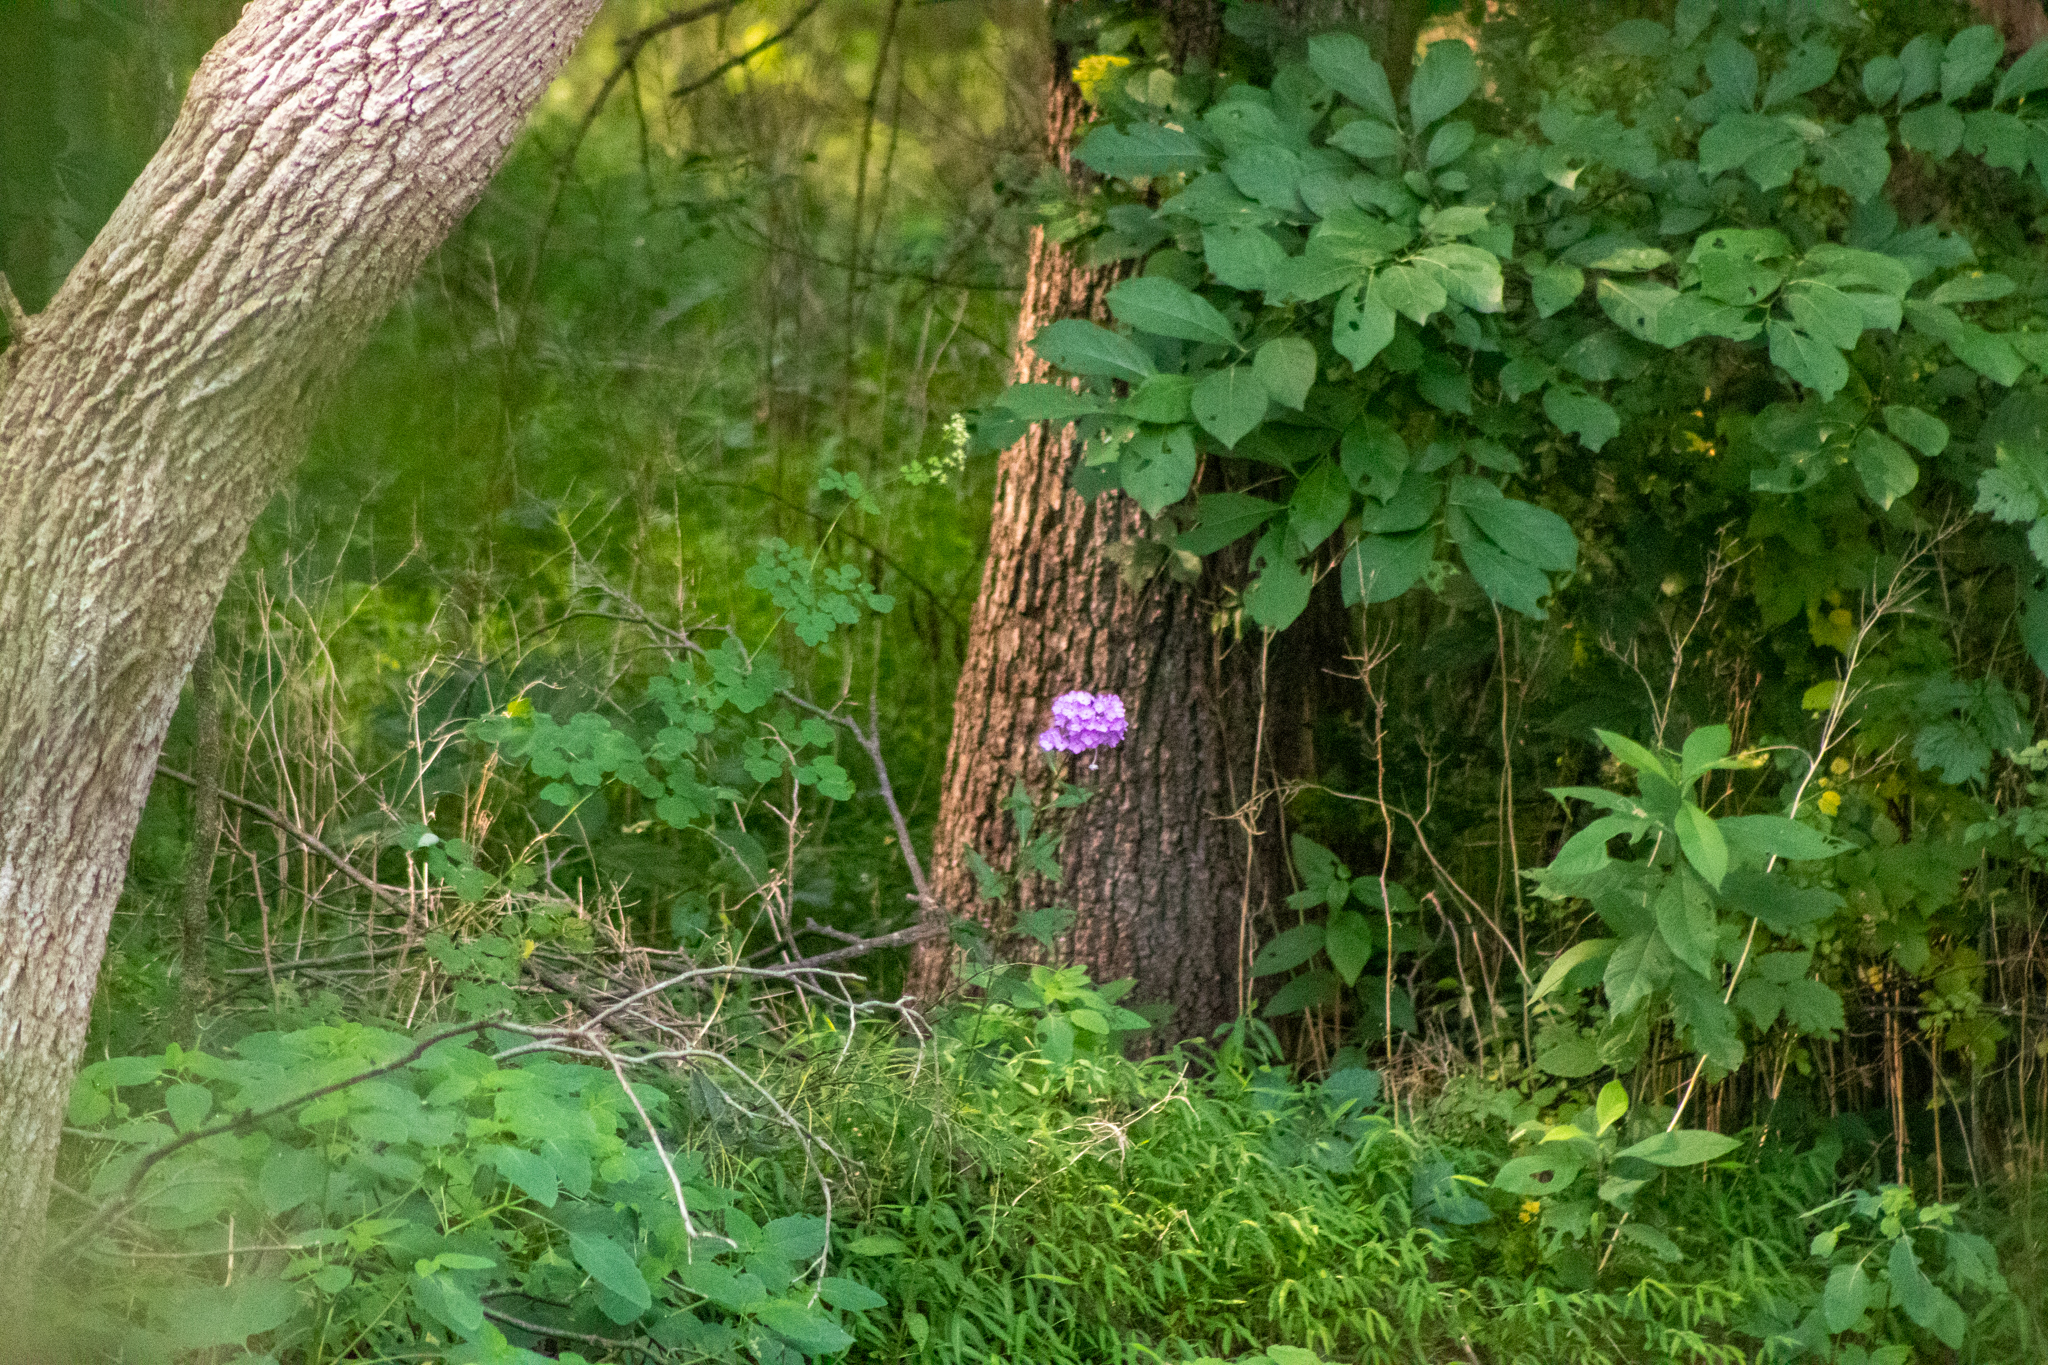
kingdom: Plantae
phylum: Tracheophyta
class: Magnoliopsida
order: Ericales
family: Polemoniaceae
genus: Phlox
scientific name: Phlox paniculata
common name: Fall phlox
